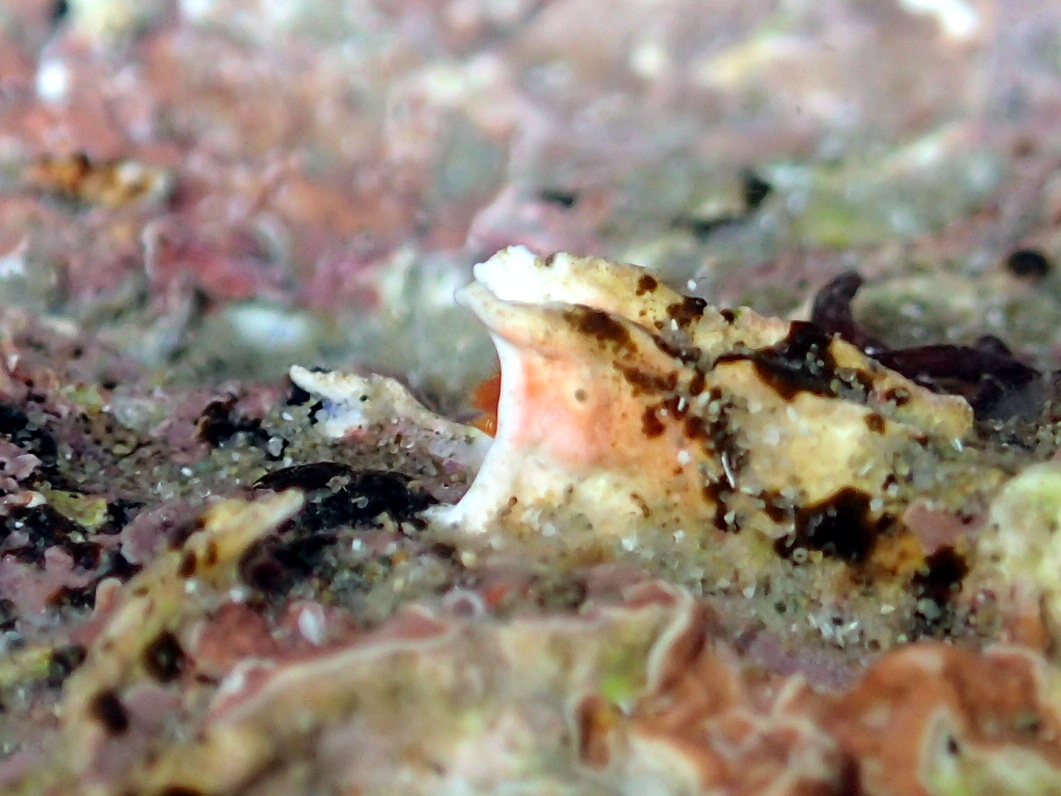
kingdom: Animalia
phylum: Annelida
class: Polychaeta
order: Sabellida
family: Serpulidae
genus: Galeolaria
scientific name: Galeolaria hystrix
